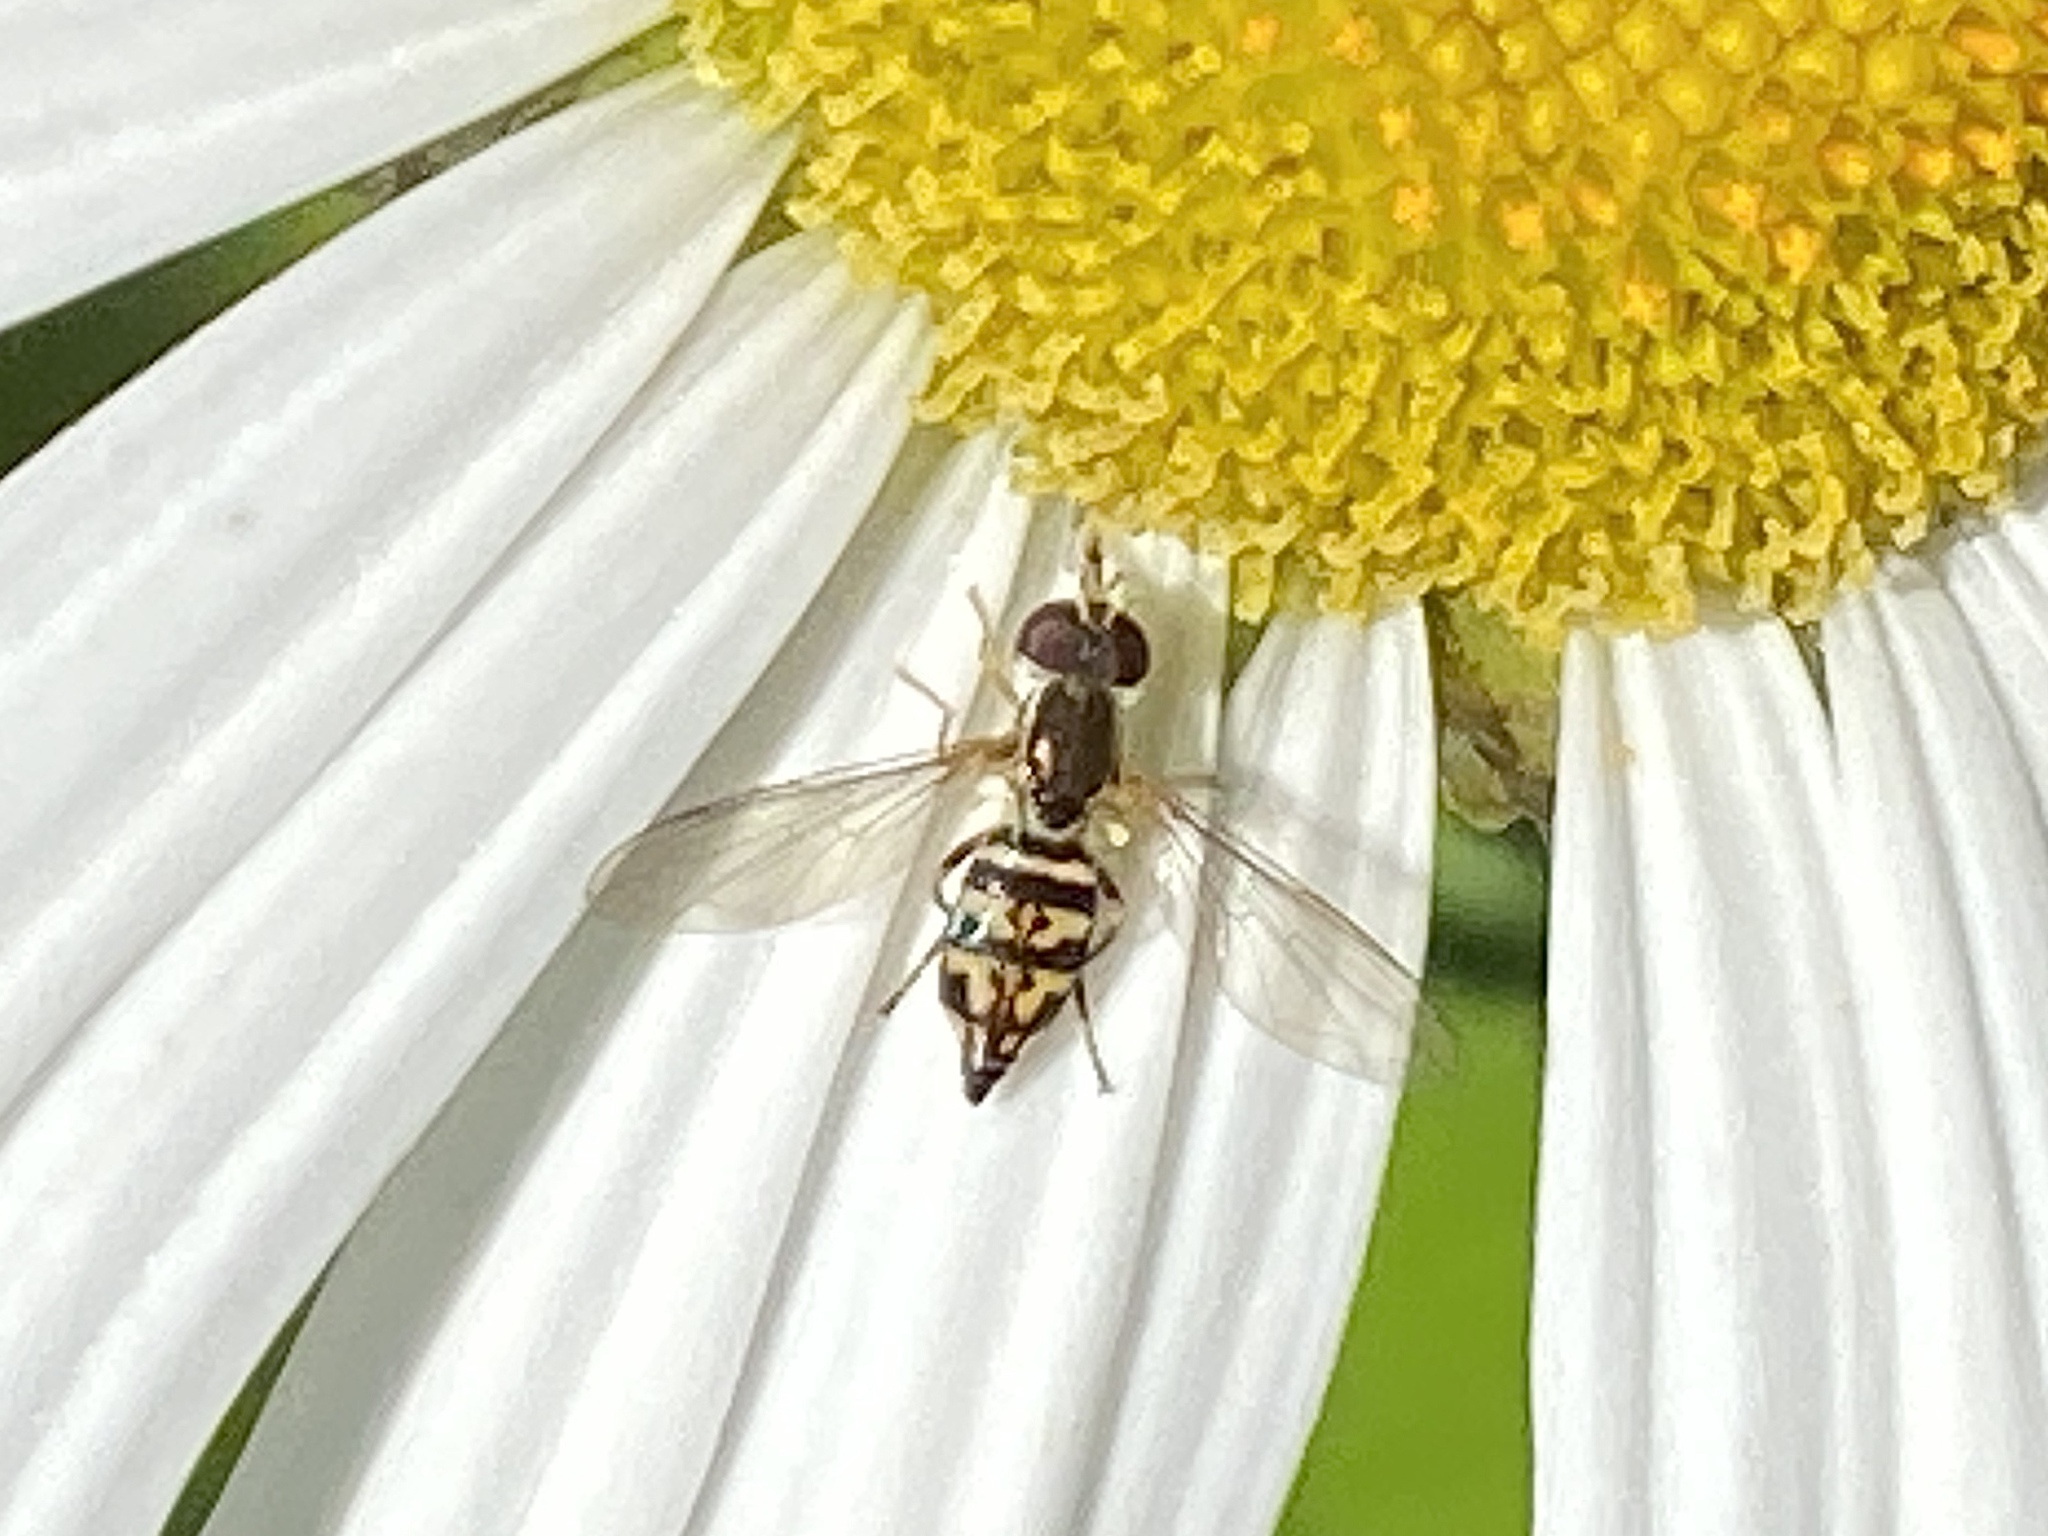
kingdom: Animalia
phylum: Arthropoda
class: Insecta
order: Diptera
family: Syrphidae
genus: Toxomerus
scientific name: Toxomerus geminatus
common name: Eastern calligrapher
